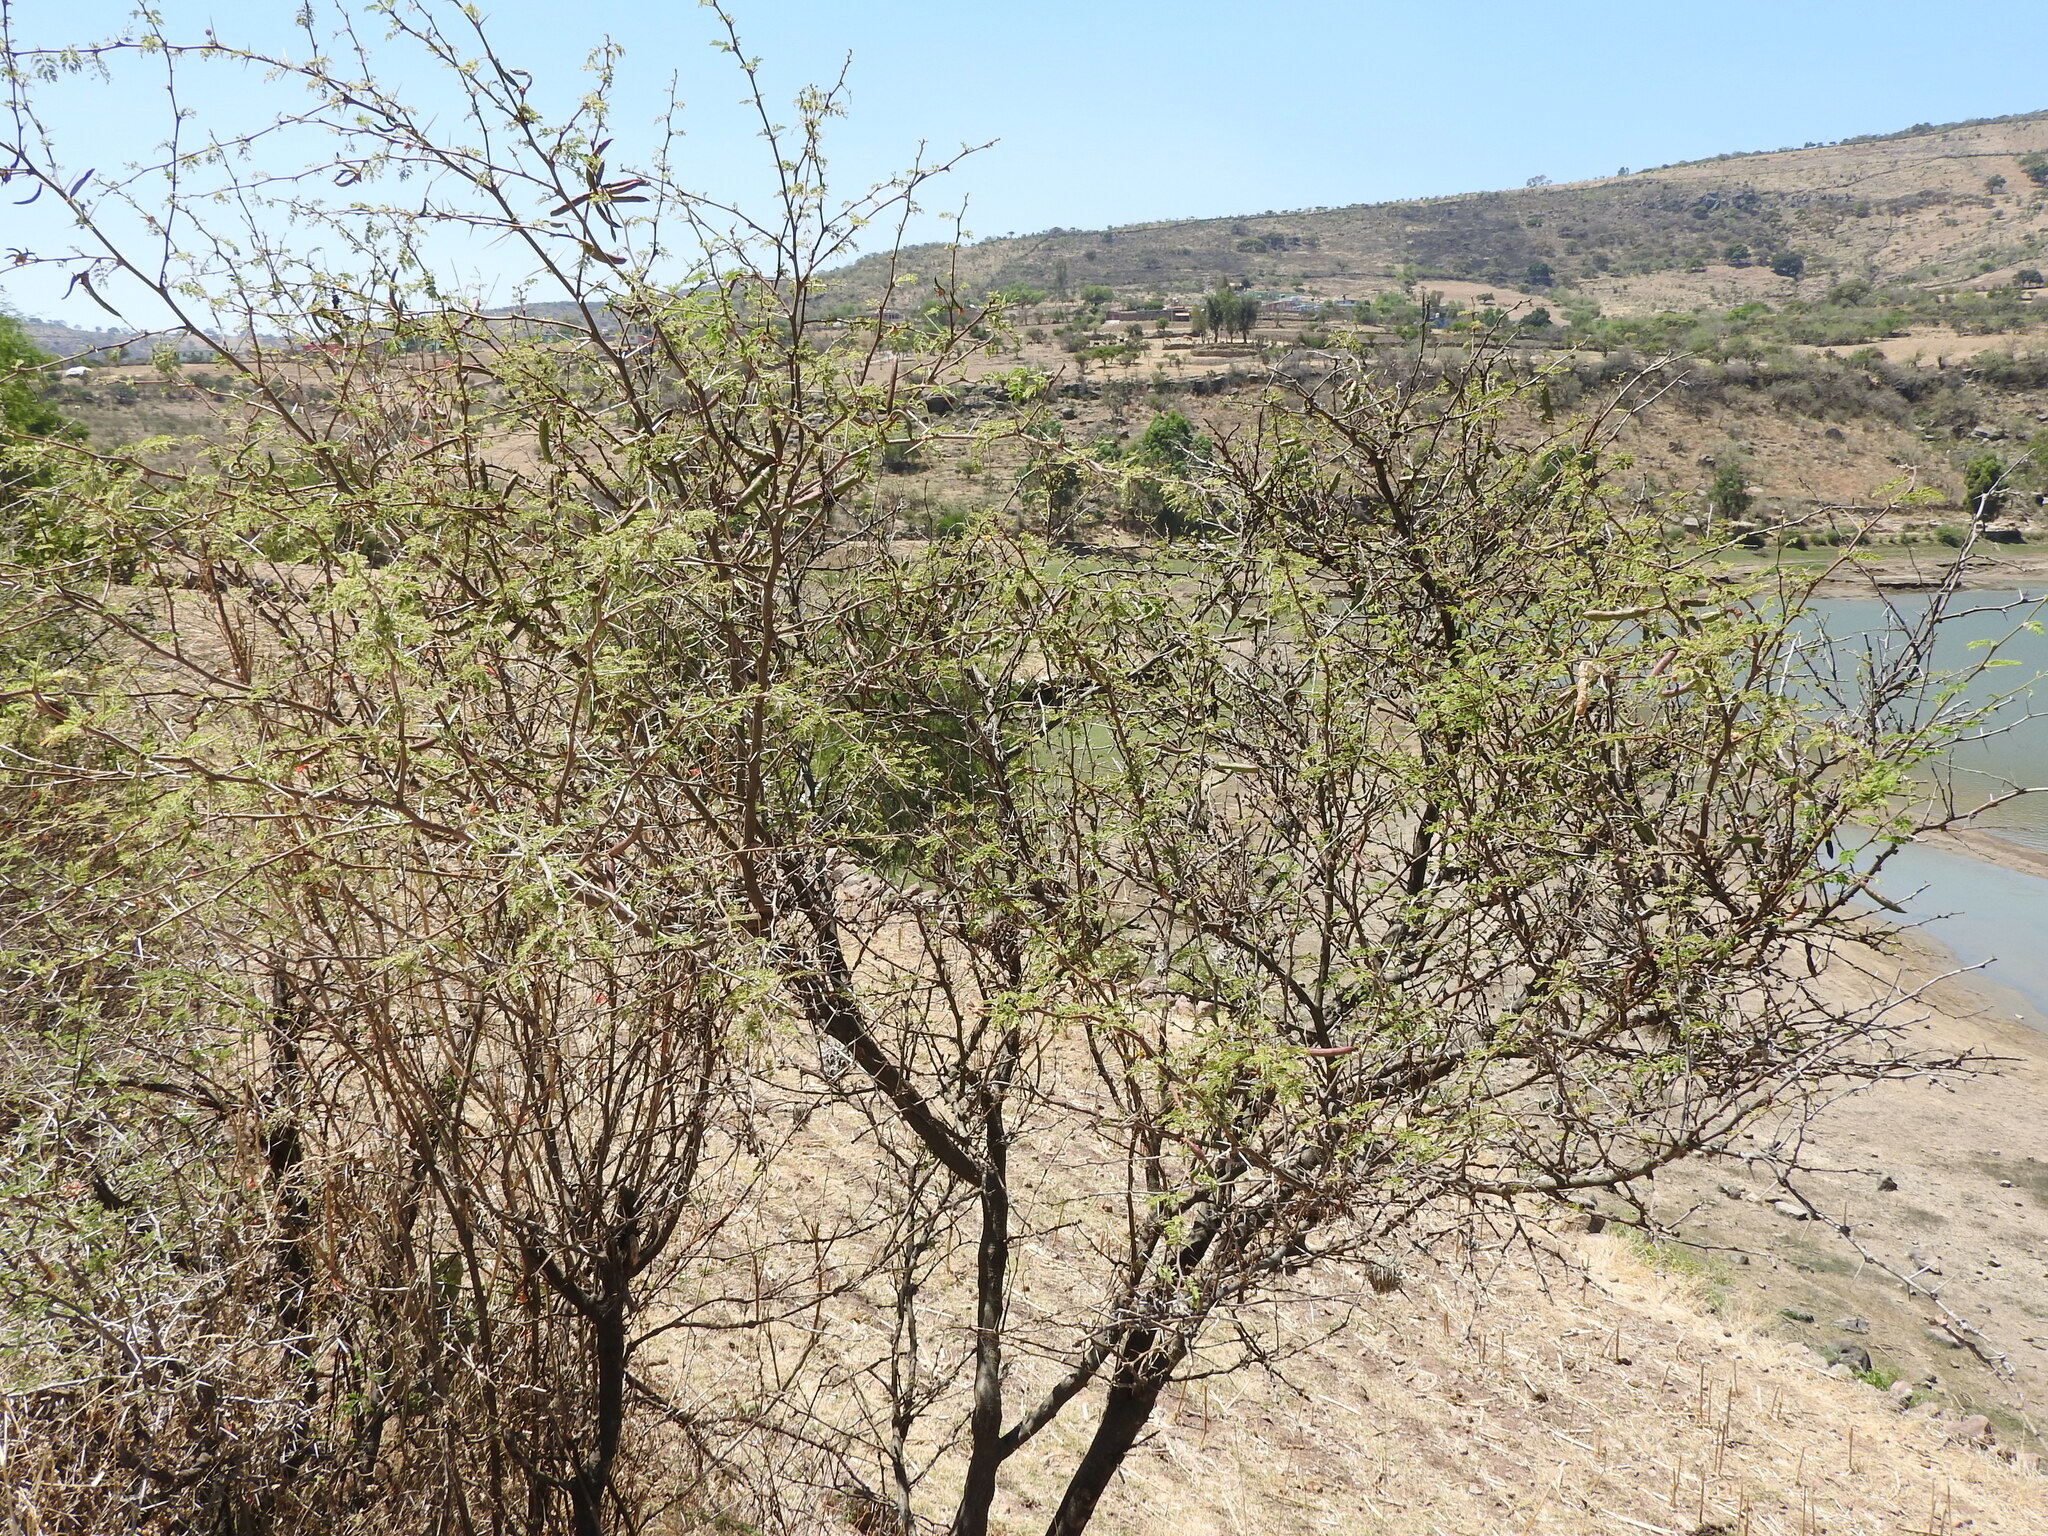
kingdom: Plantae
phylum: Tracheophyta
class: Magnoliopsida
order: Fabales
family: Fabaceae
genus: Vachellia
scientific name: Vachellia farnesiana
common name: Sweet acacia
